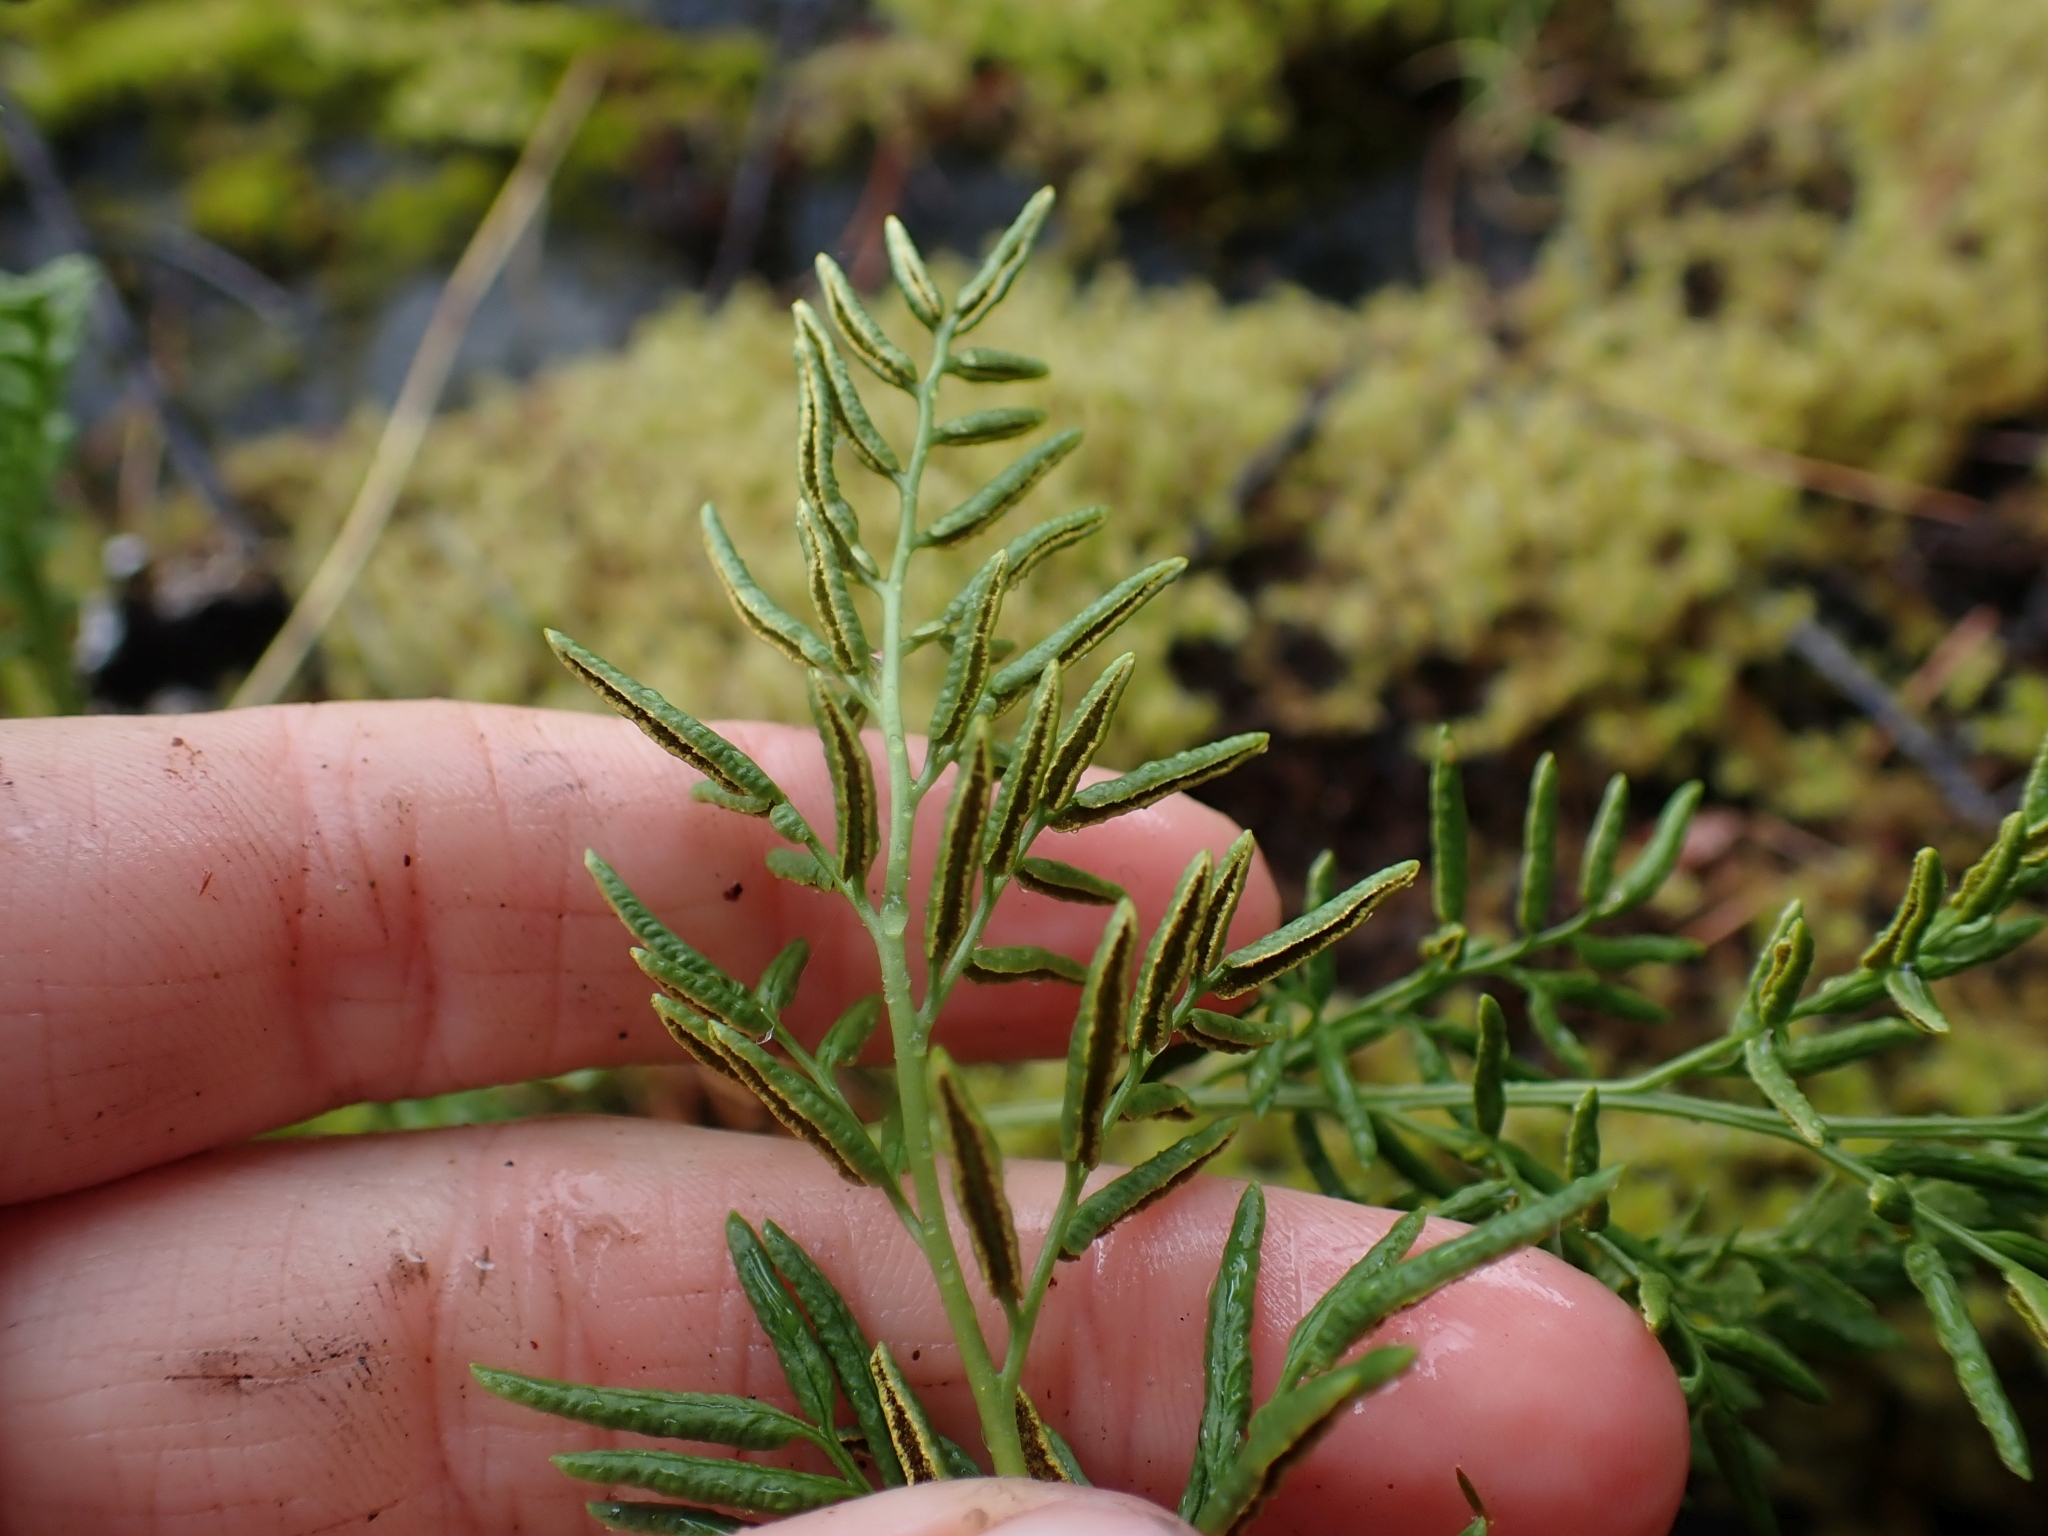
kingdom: Plantae
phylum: Tracheophyta
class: Polypodiopsida
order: Polypodiales
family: Pteridaceae
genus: Cryptogramma
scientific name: Cryptogramma acrostichoides
